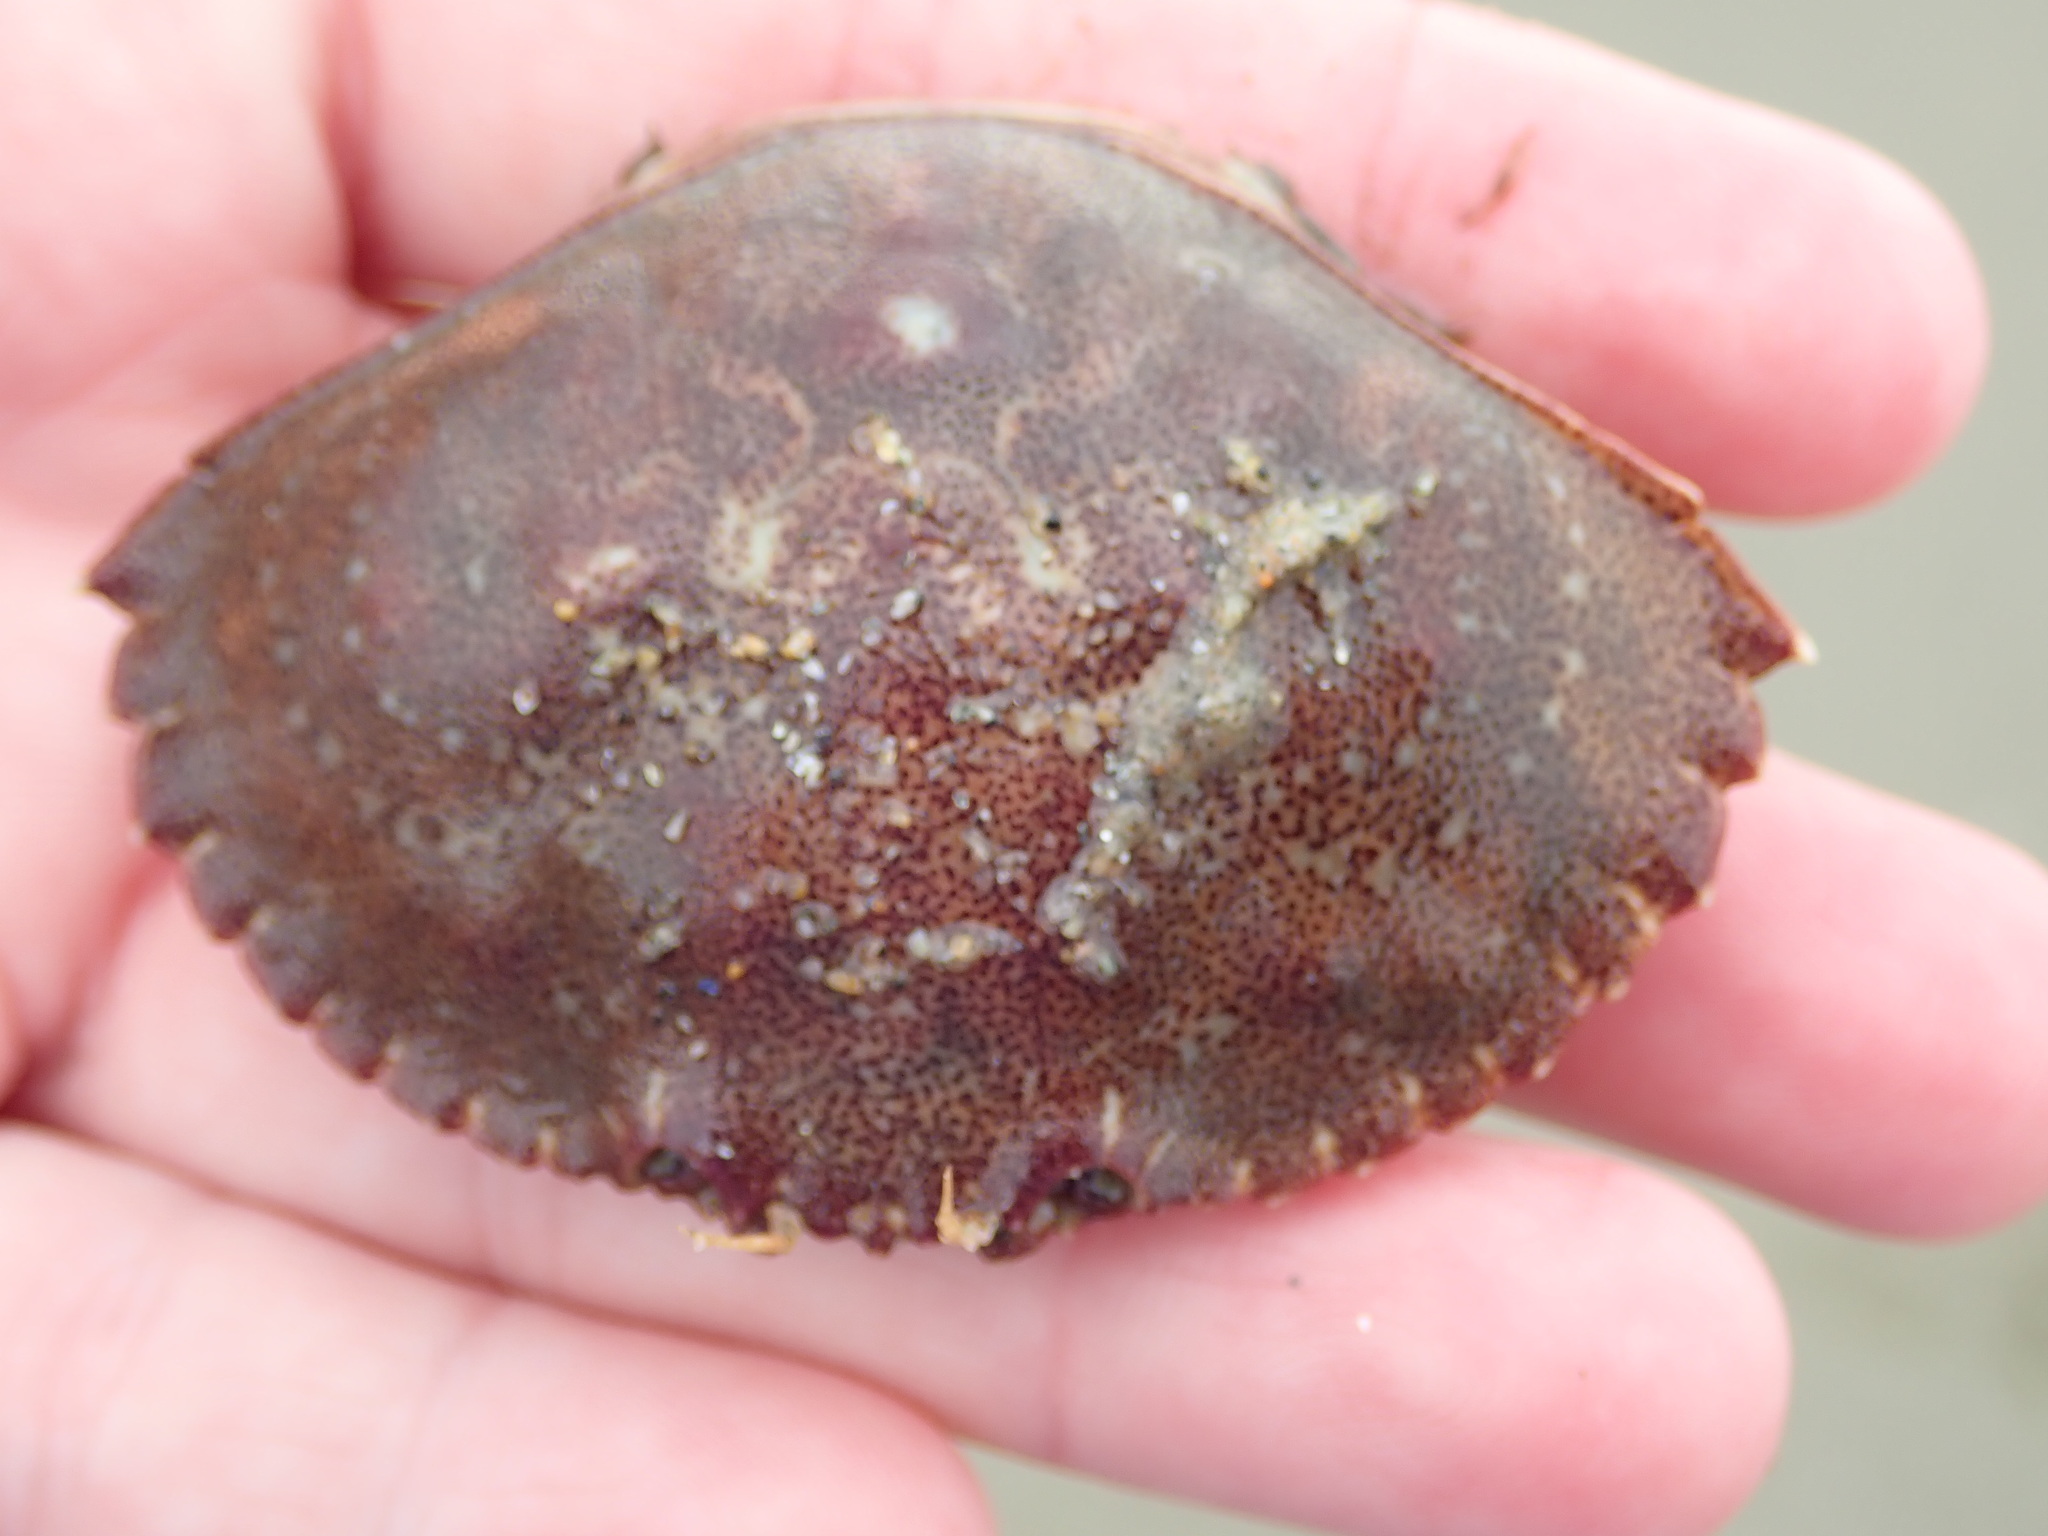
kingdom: Animalia
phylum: Arthropoda
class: Malacostraca
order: Decapoda
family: Cancridae
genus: Cancer
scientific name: Cancer irroratus
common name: Atlantic rock crab
